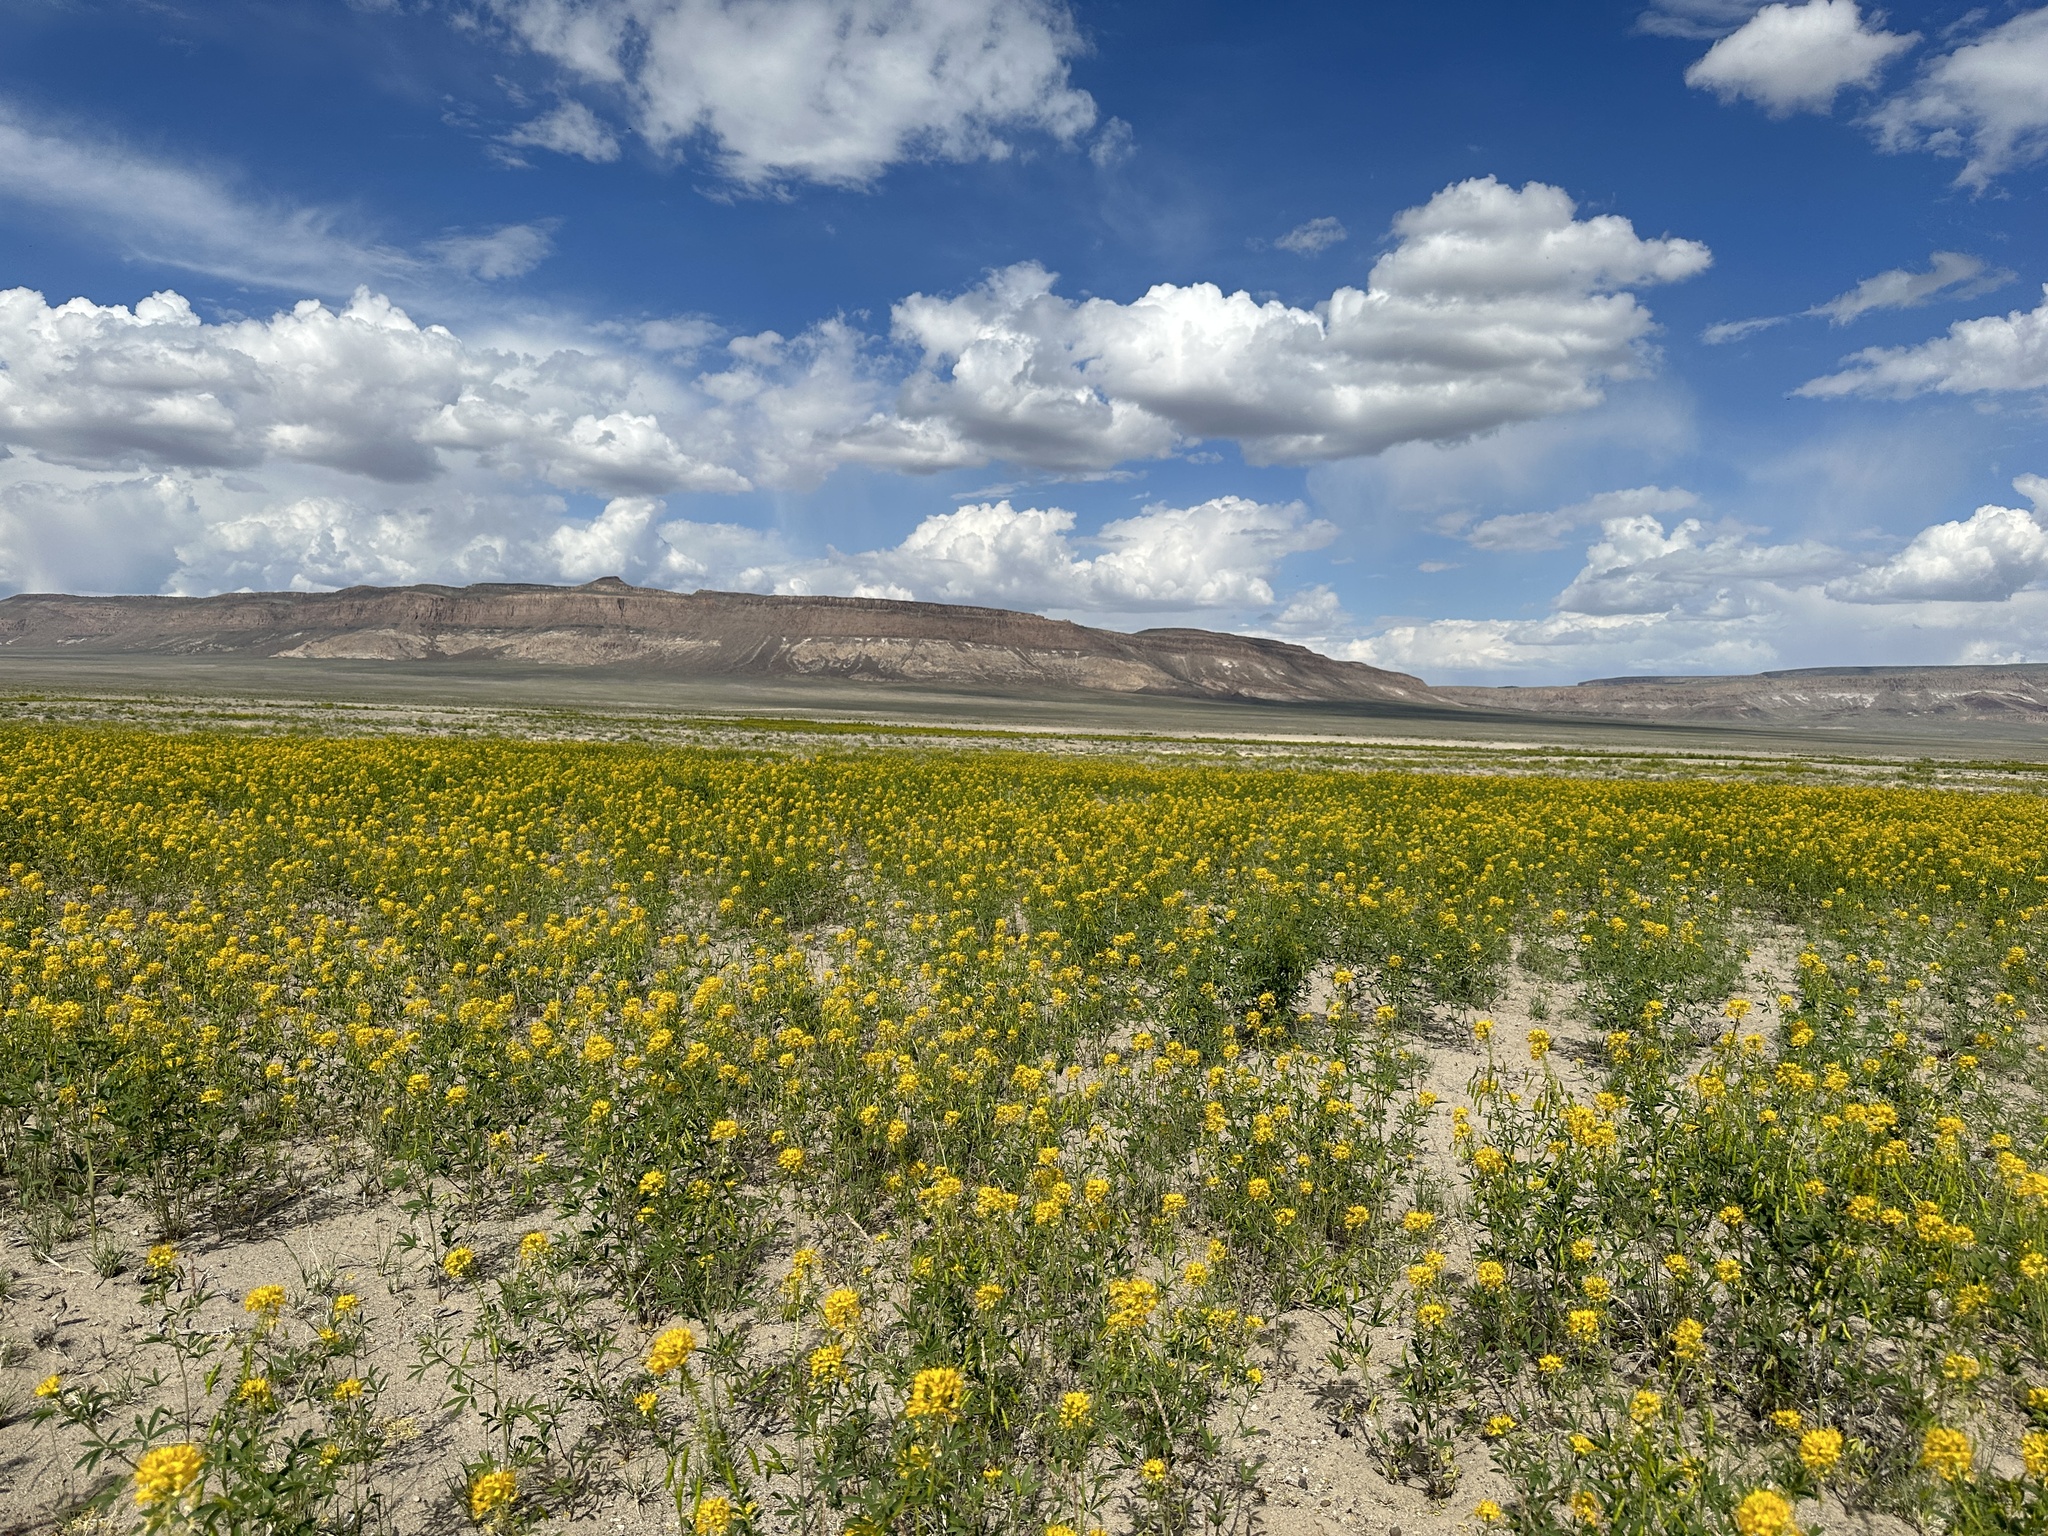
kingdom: Plantae
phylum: Tracheophyta
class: Magnoliopsida
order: Brassicales
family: Cleomaceae
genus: Cleomella
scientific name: Cleomella lutea
